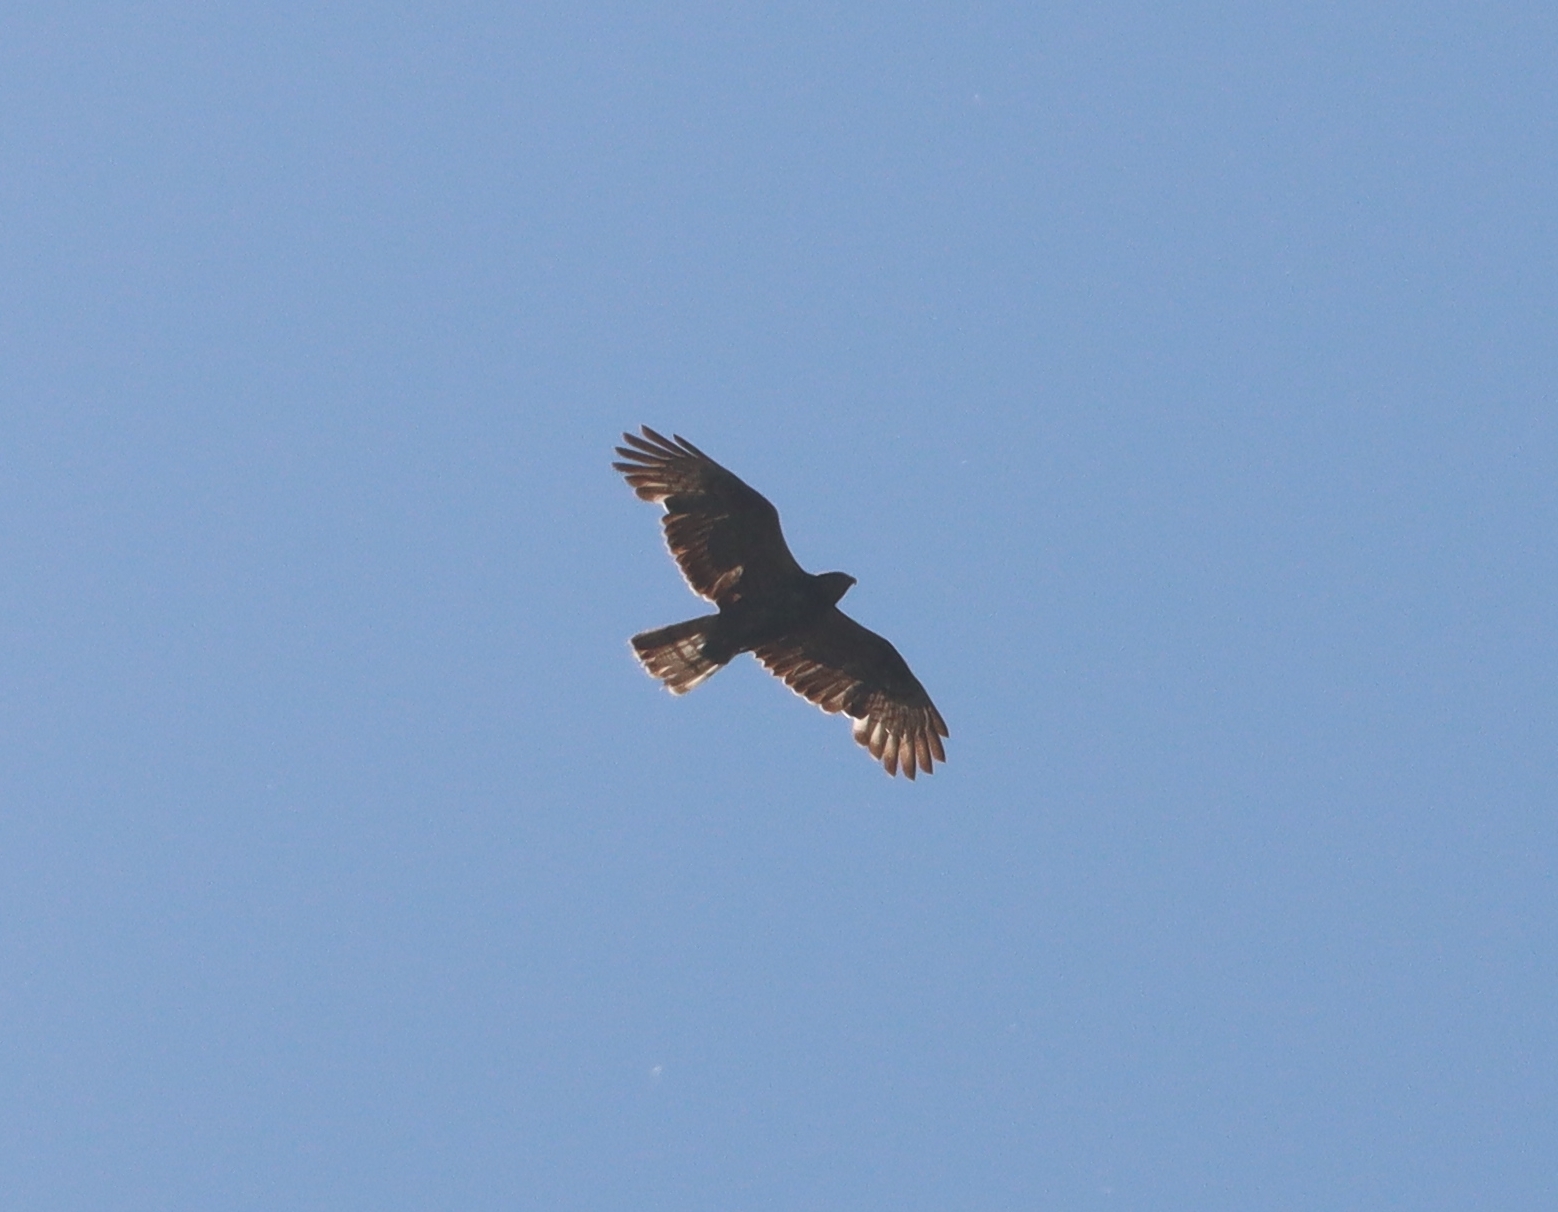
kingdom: Animalia
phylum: Chordata
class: Aves
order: Accipitriformes
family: Accipitridae
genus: Pernis
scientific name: Pernis apivorus
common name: European honey buzzard
